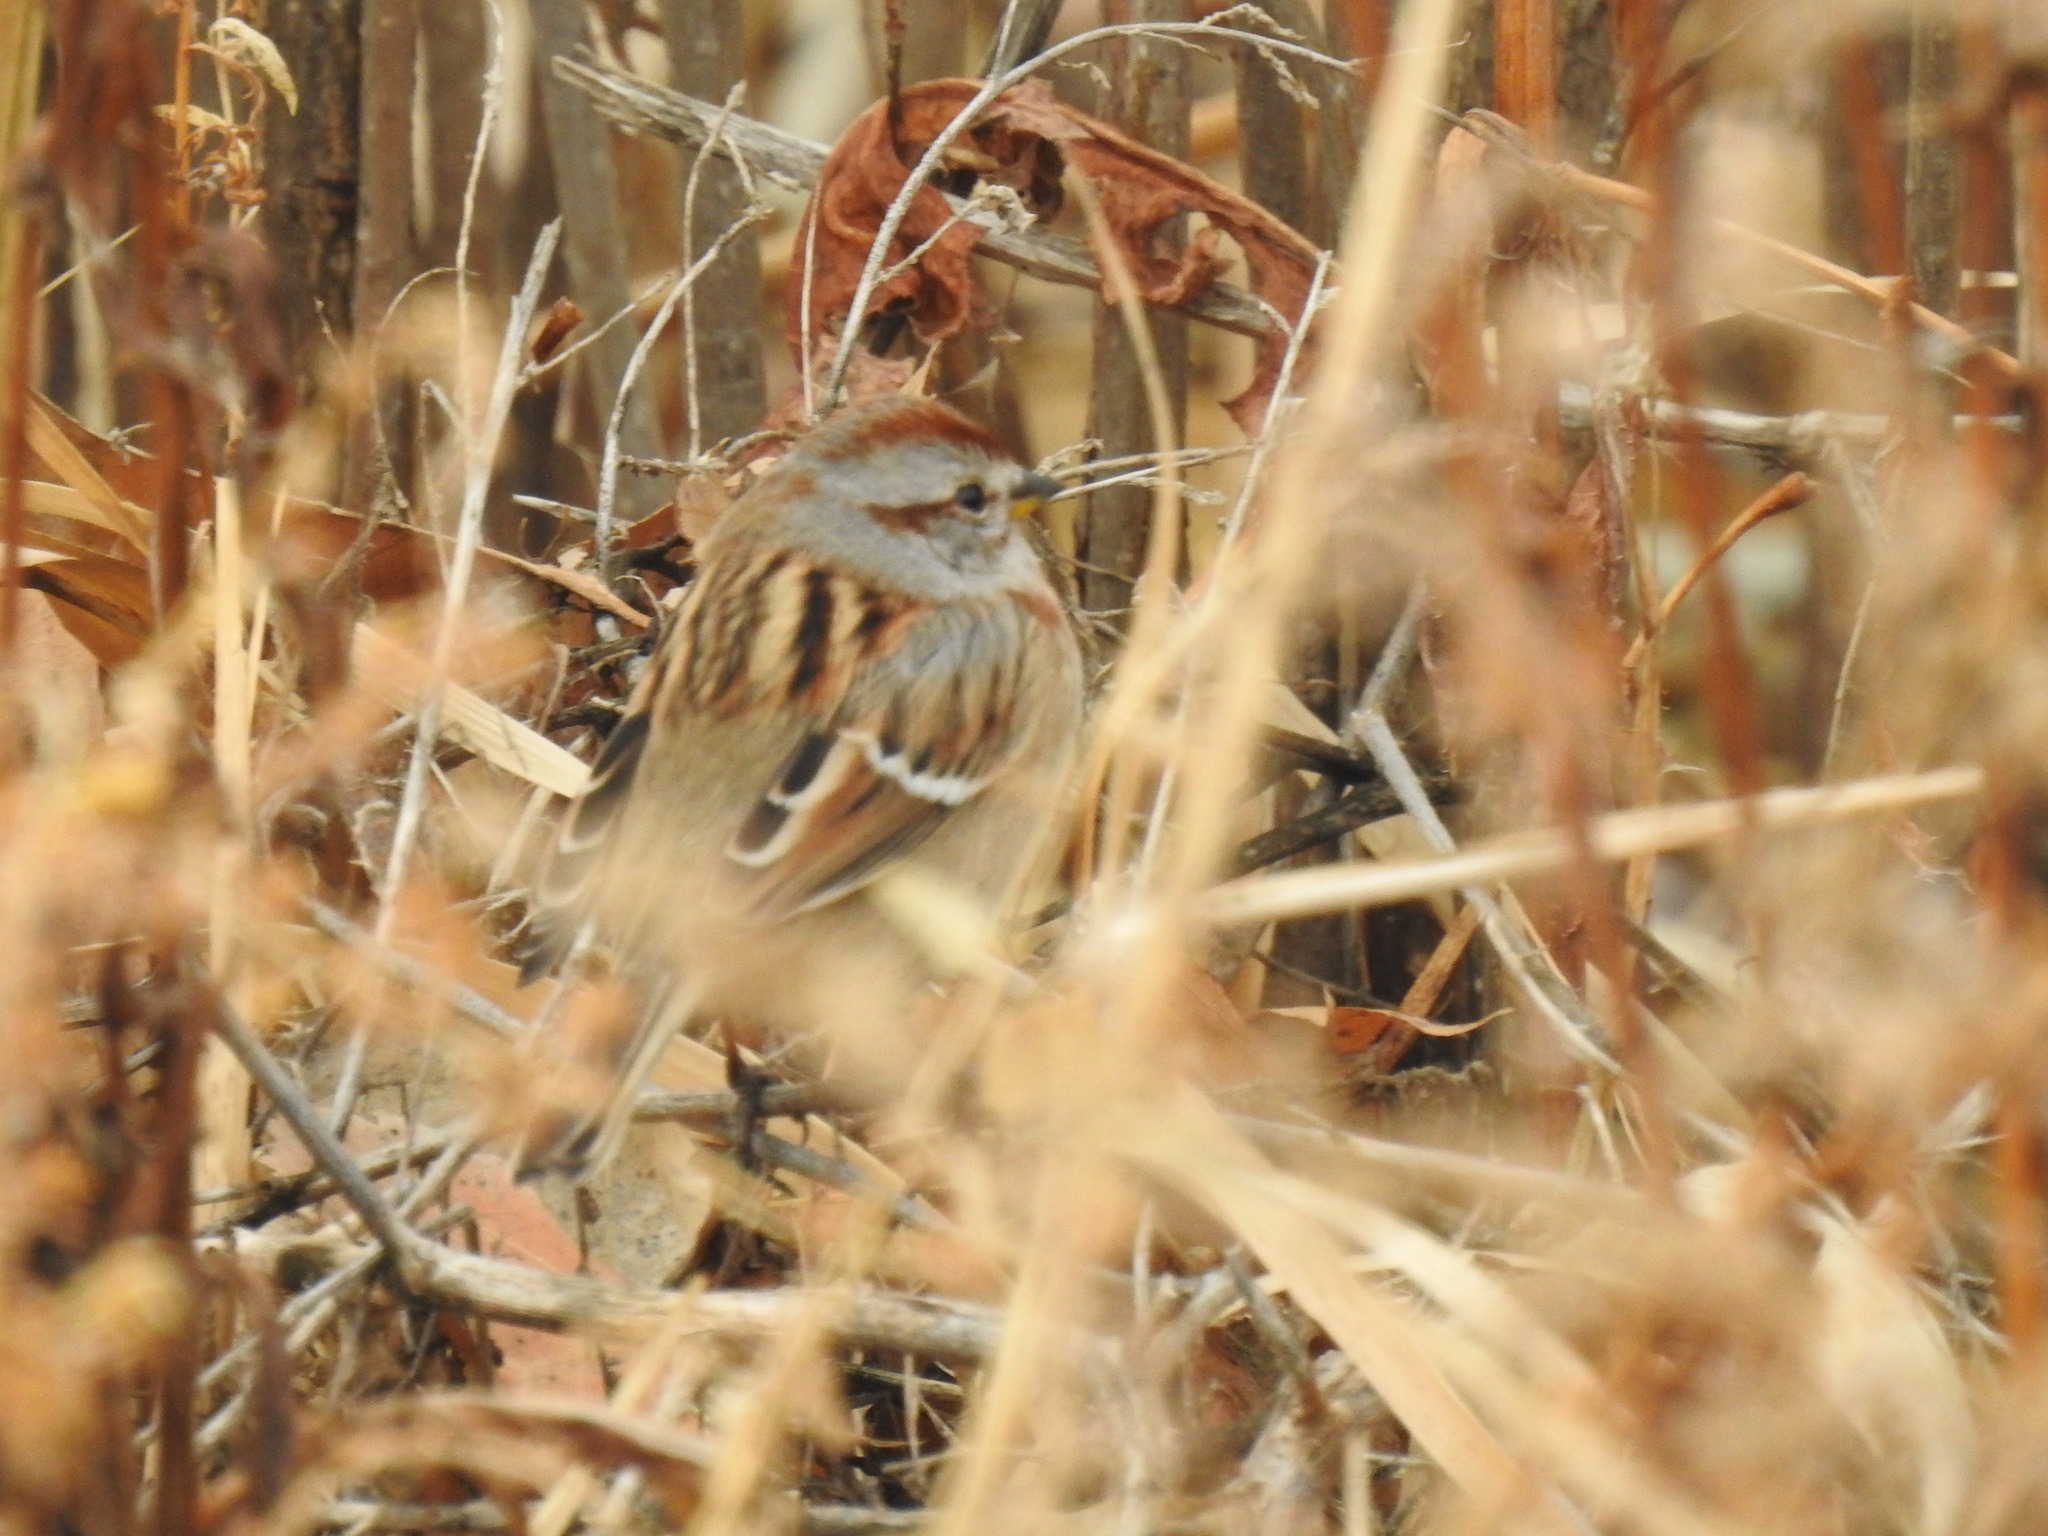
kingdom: Animalia
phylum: Chordata
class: Aves
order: Passeriformes
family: Passerellidae
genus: Spizelloides
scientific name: Spizelloides arborea
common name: American tree sparrow
